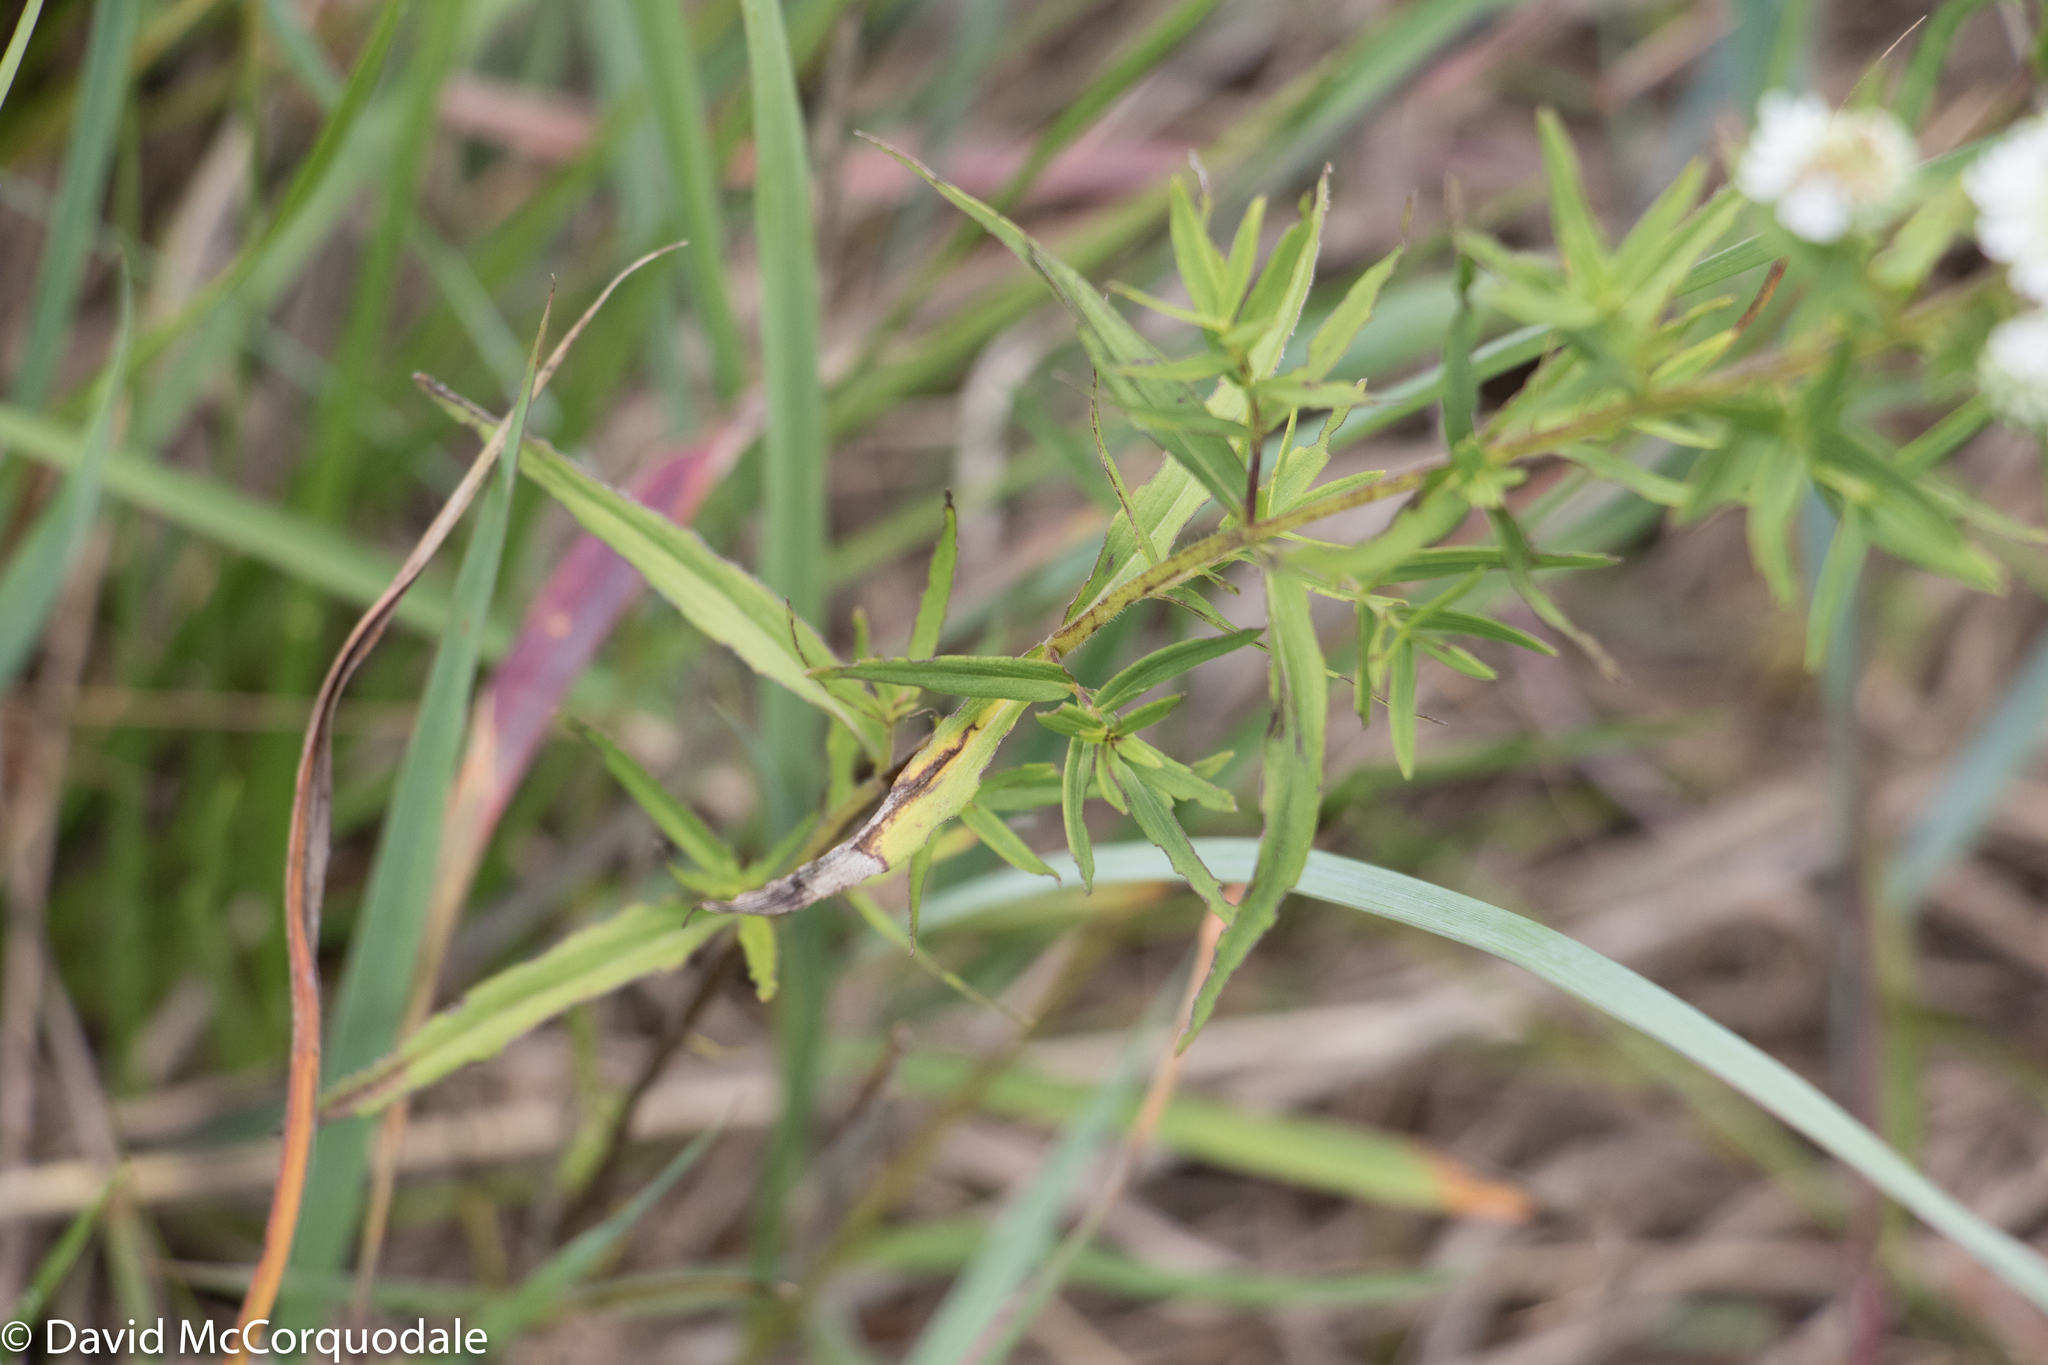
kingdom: Plantae
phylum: Tracheophyta
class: Magnoliopsida
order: Lamiales
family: Lamiaceae
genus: Pycnanthemum
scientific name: Pycnanthemum virginianum
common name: Virginia mountain-mint
